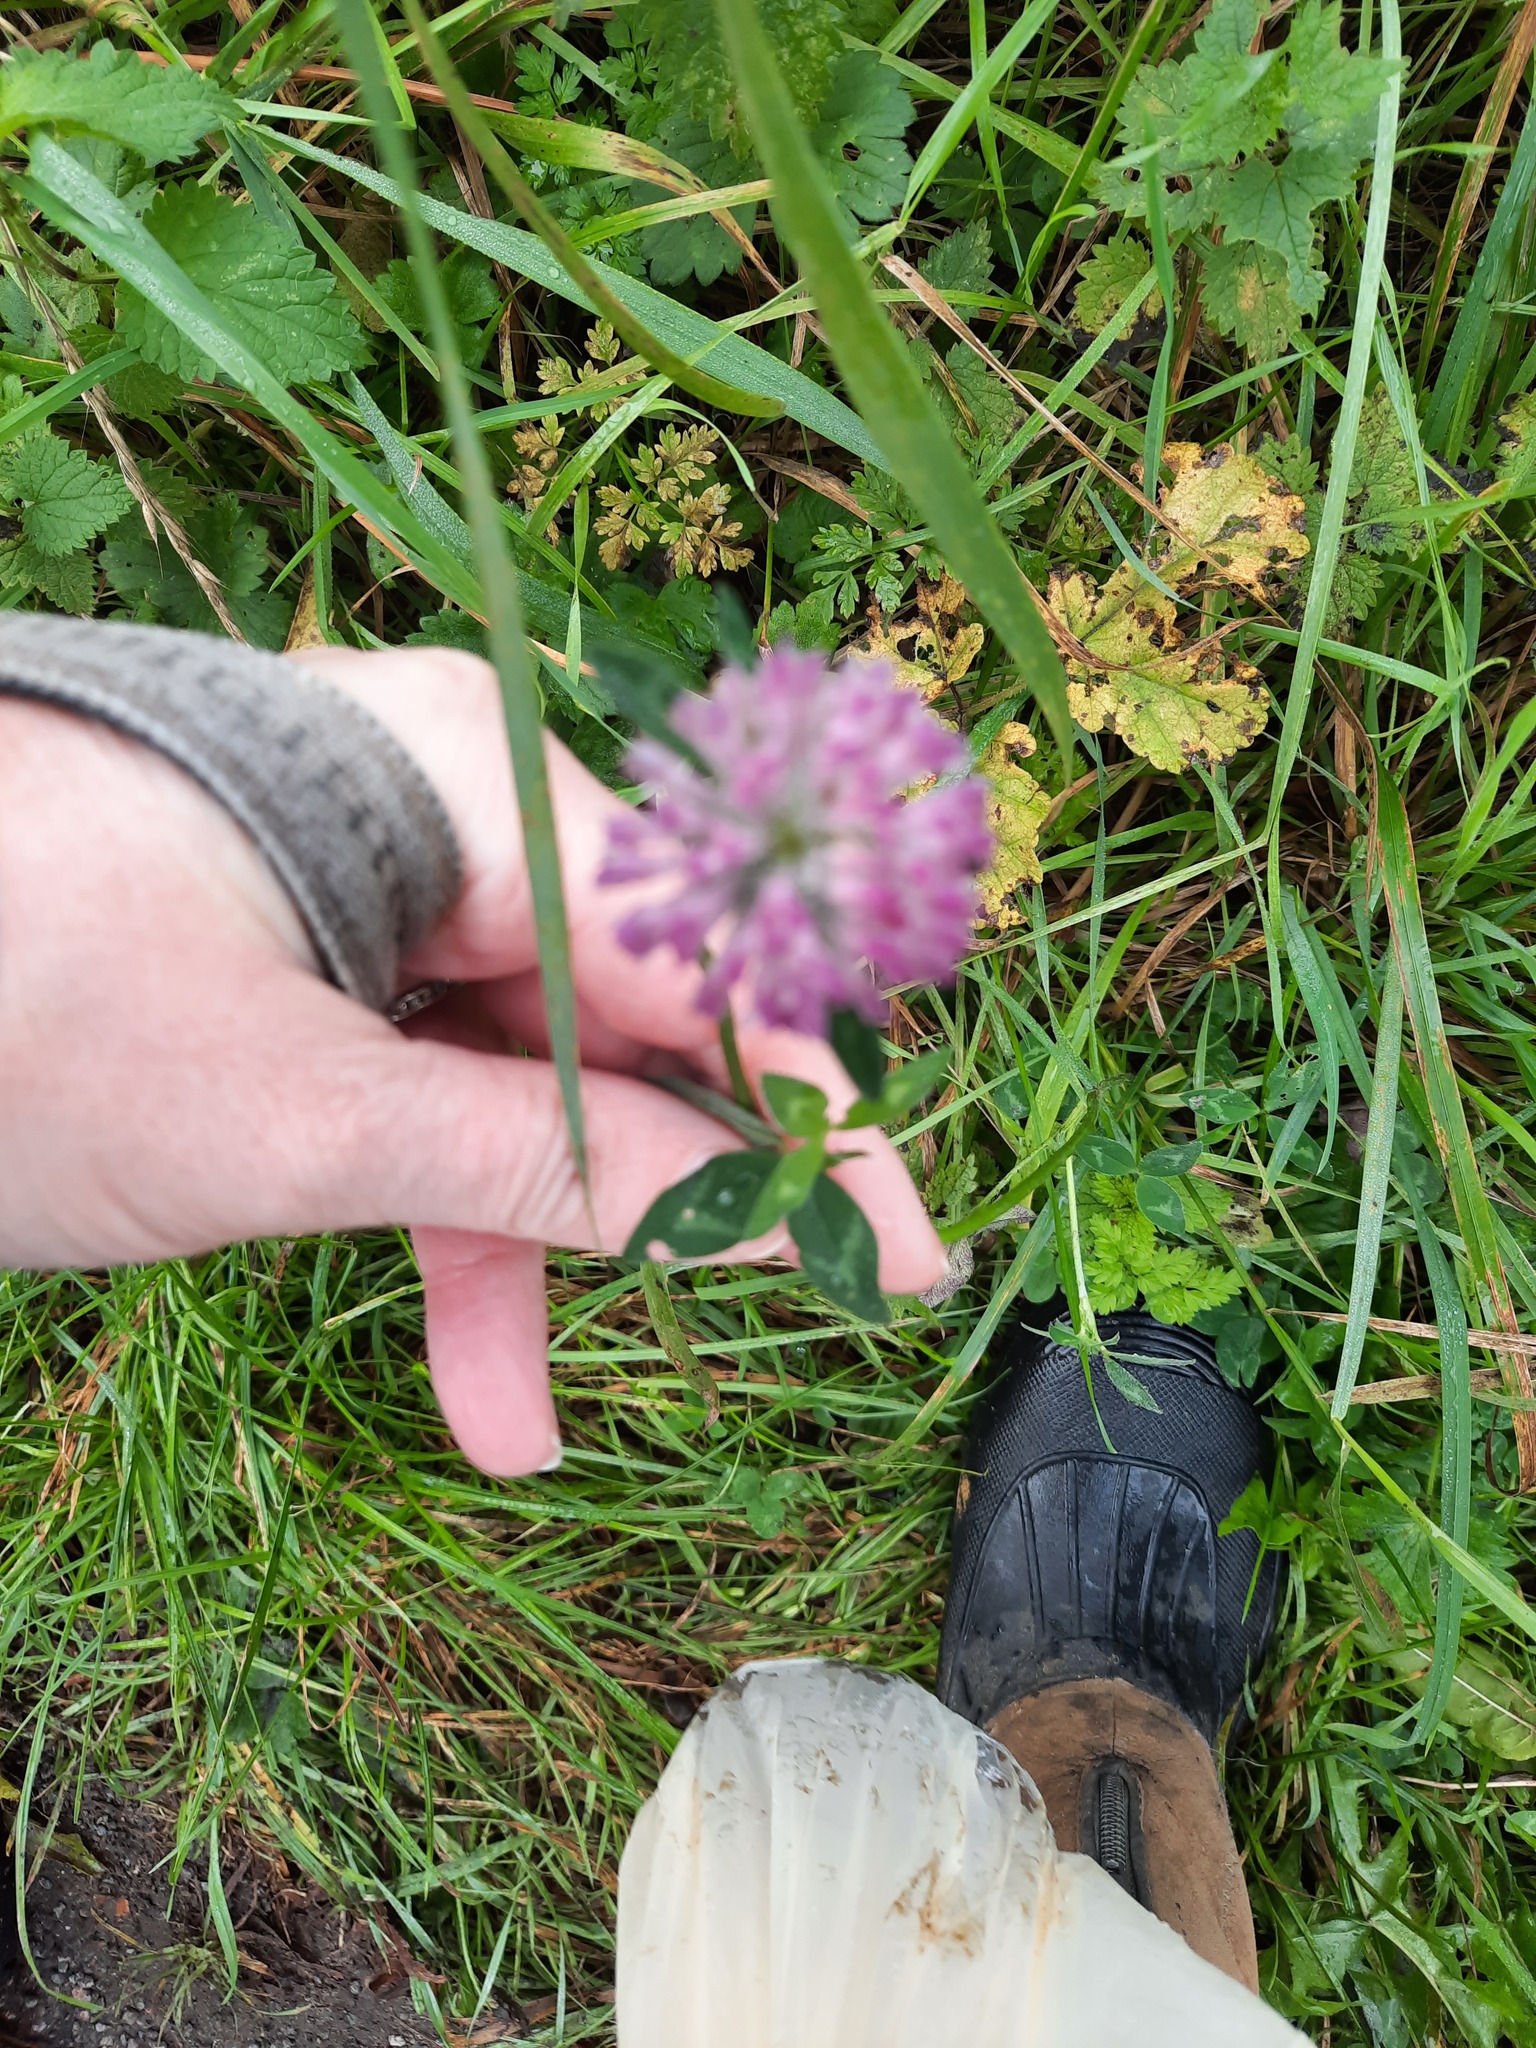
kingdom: Plantae
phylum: Tracheophyta
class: Magnoliopsida
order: Fabales
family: Fabaceae
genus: Trifolium
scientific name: Trifolium pratense
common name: Red clover
